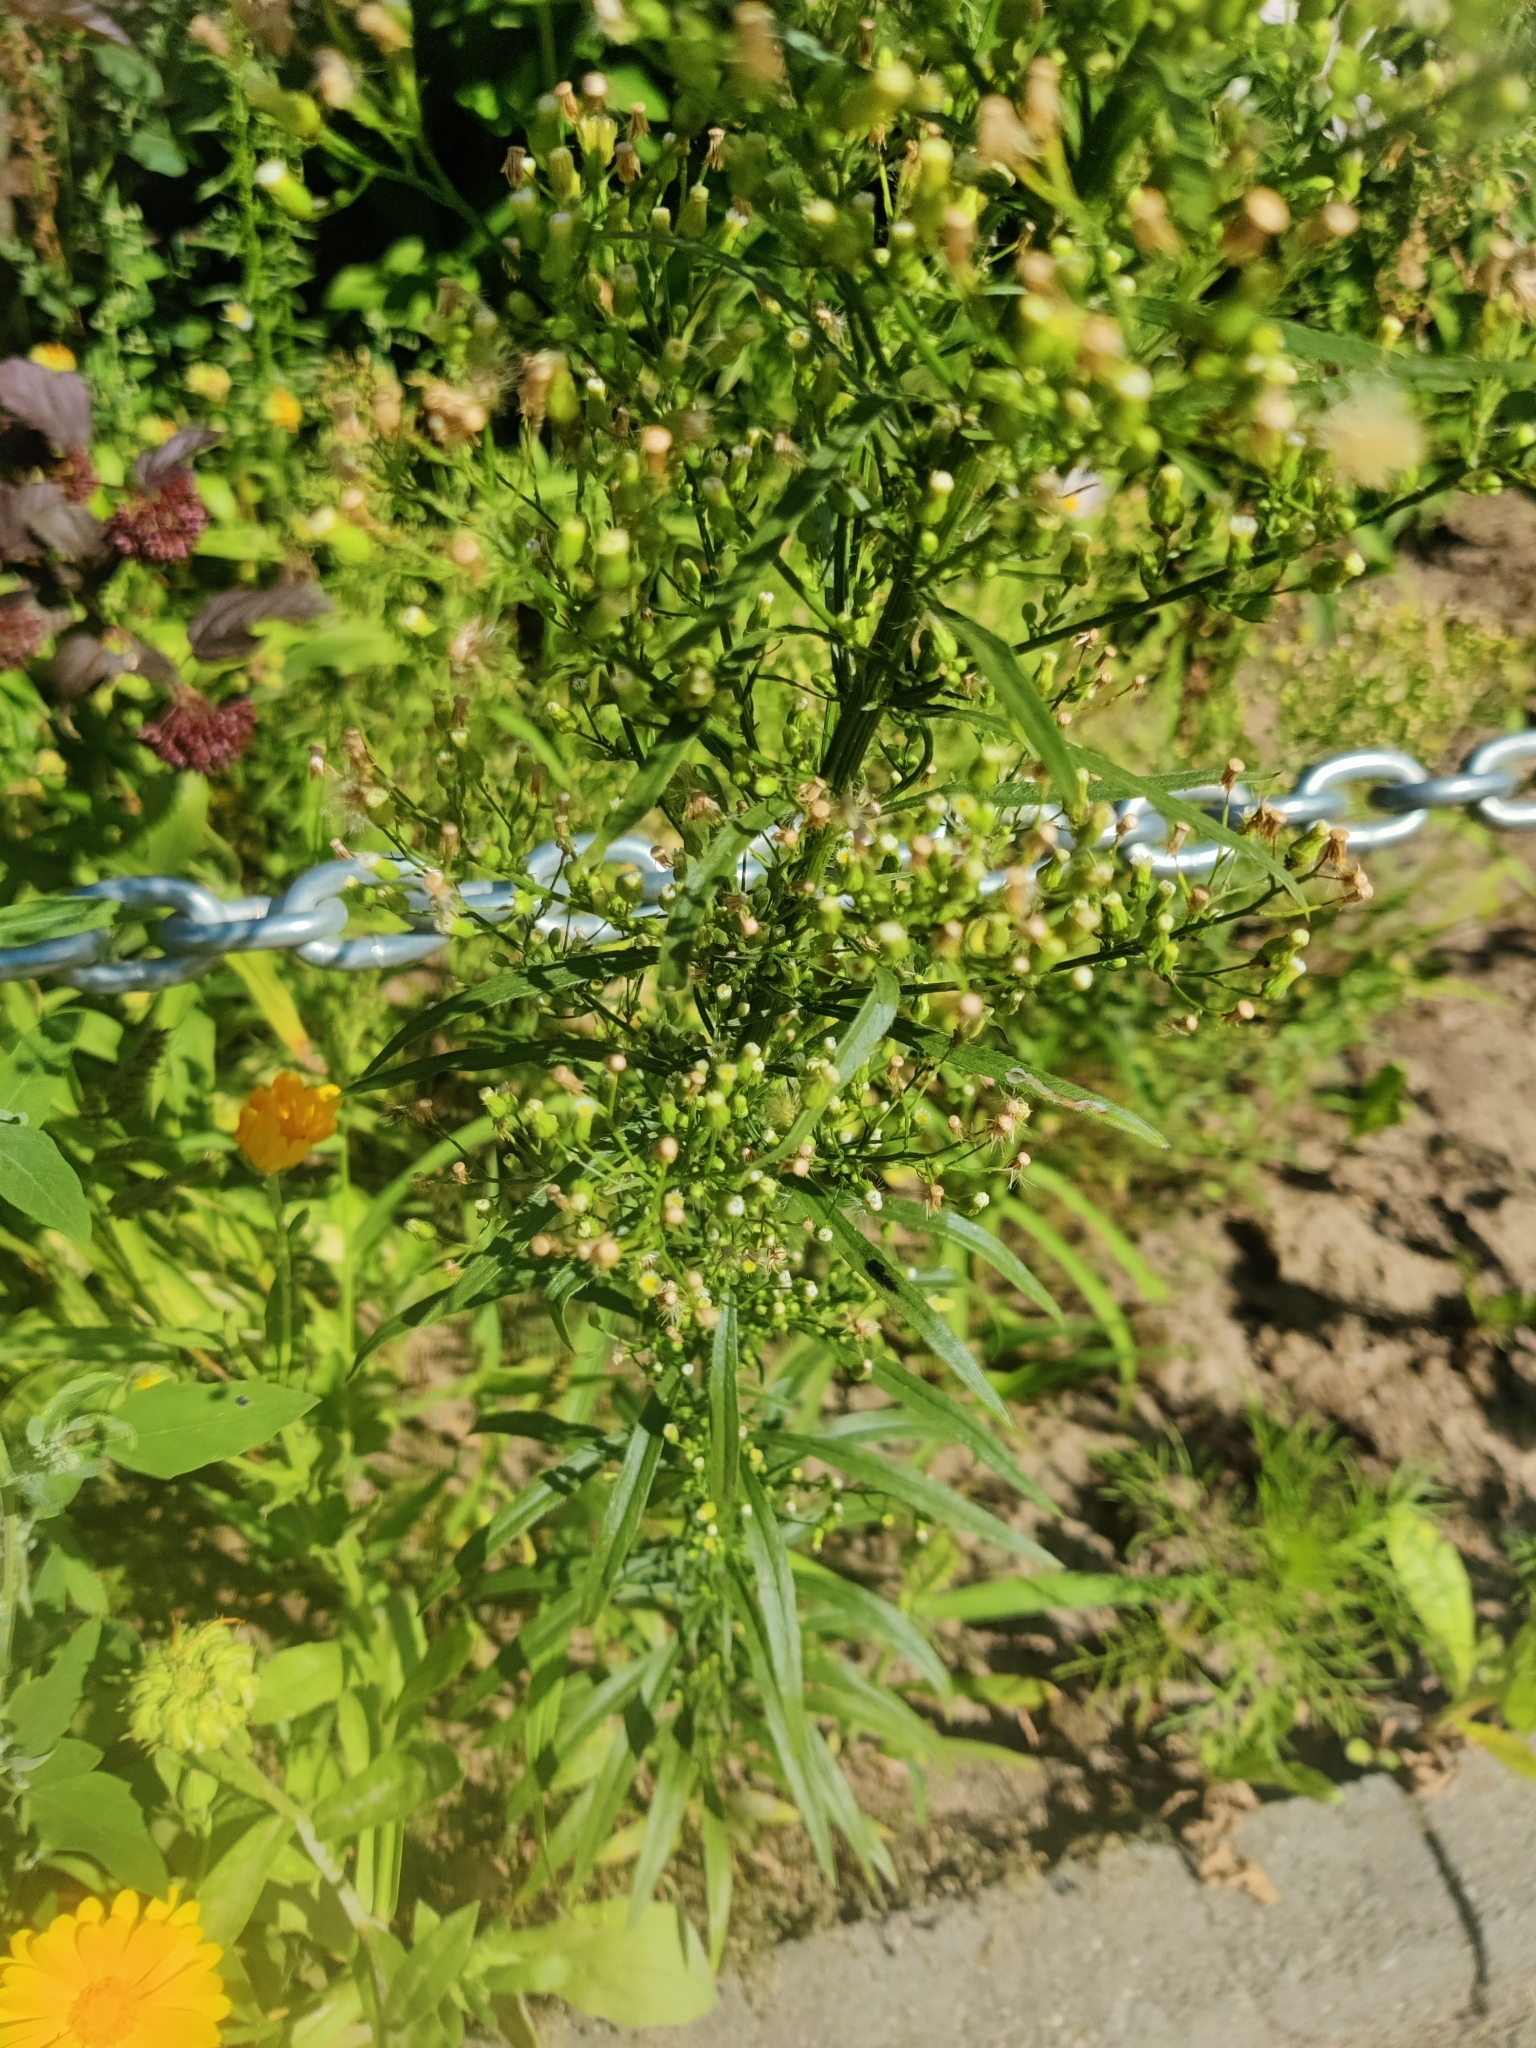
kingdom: Plantae
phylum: Tracheophyta
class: Magnoliopsida
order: Asterales
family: Asteraceae
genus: Erigeron
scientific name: Erigeron canadensis
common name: Canadian fleabane
